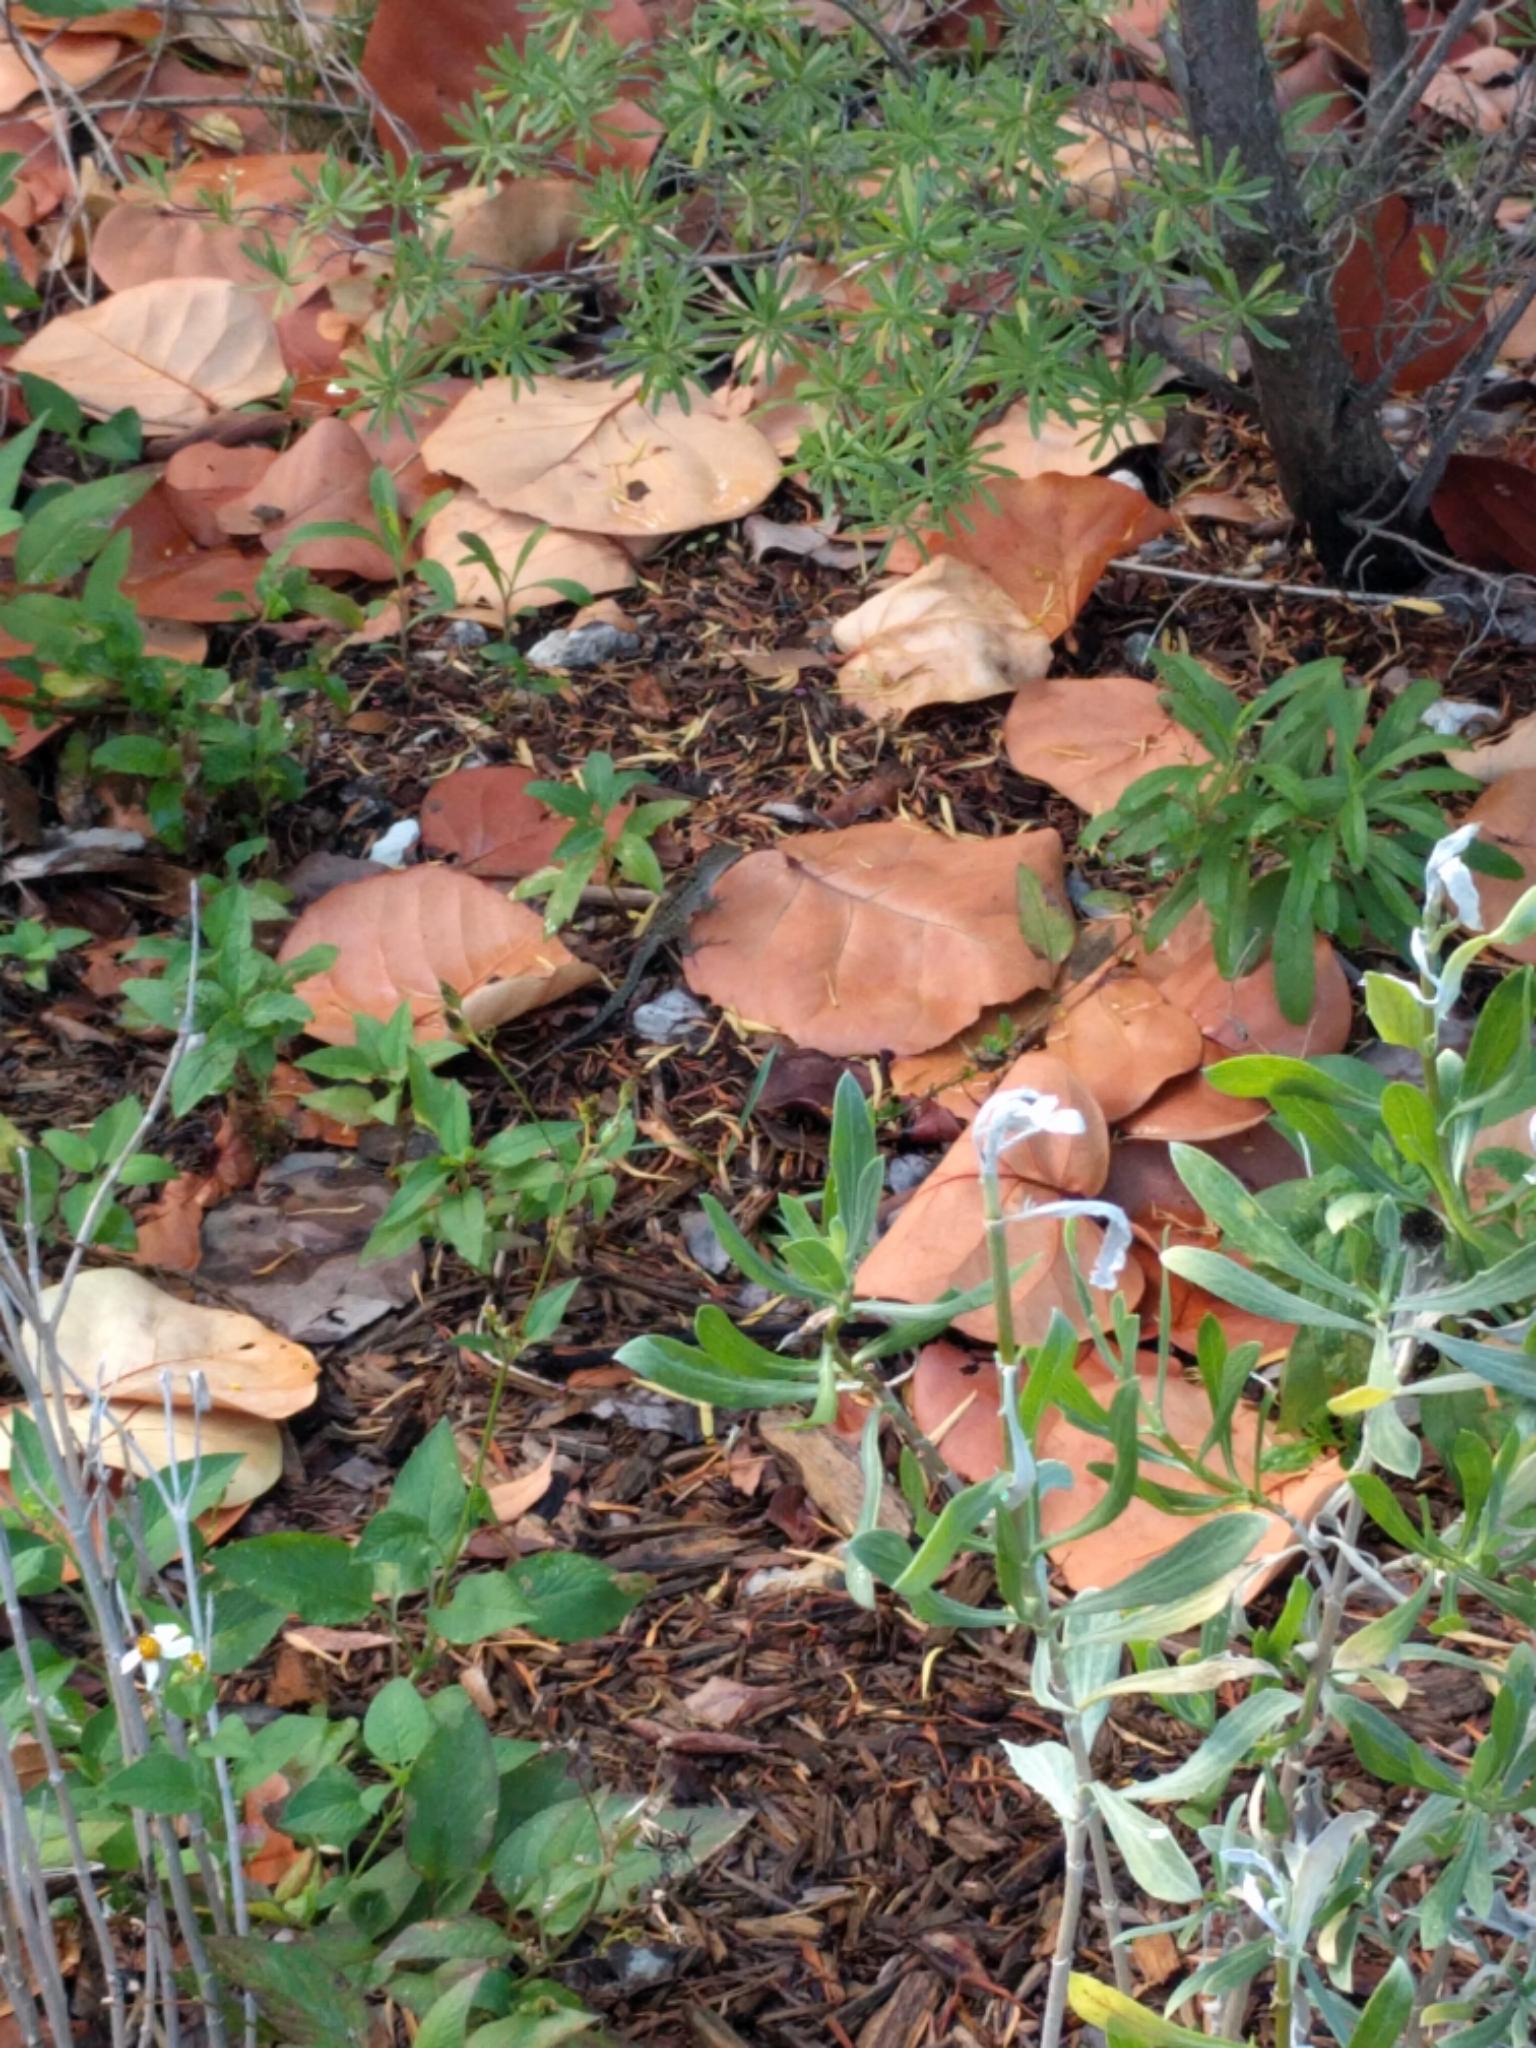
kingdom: Animalia
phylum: Chordata
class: Squamata
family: Dactyloidae
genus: Anolis
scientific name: Anolis sagrei
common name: Brown anole
